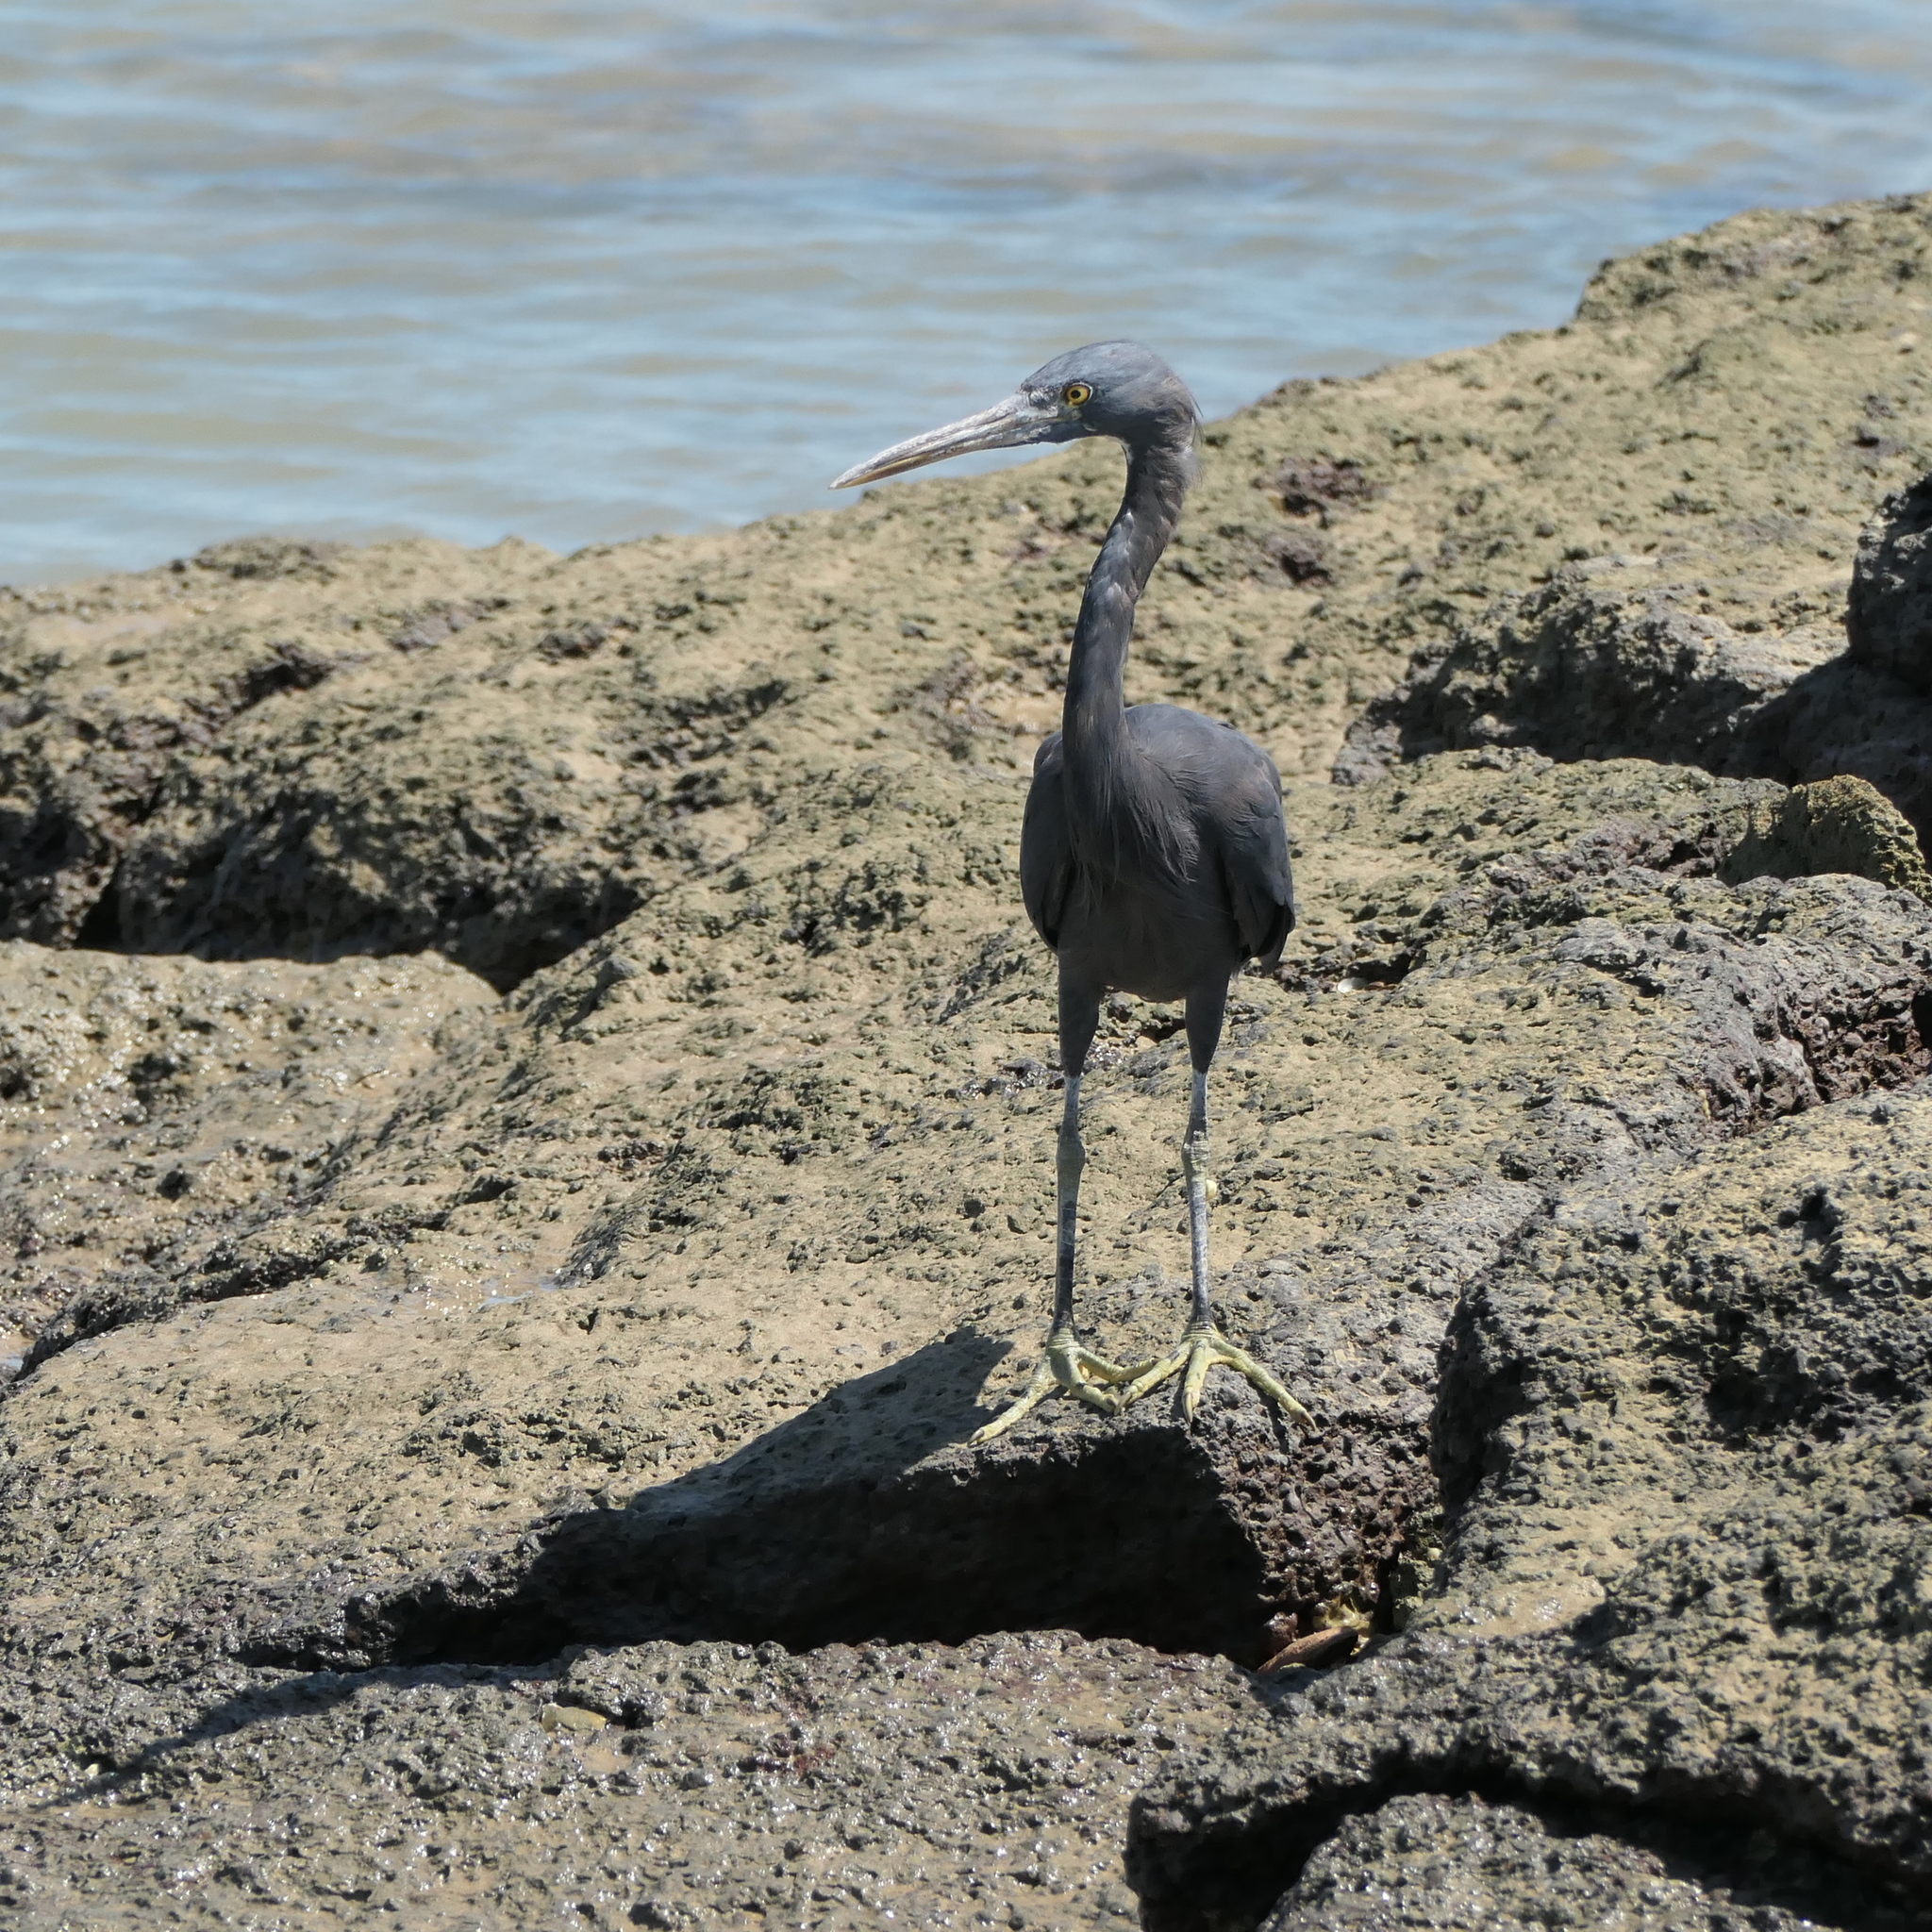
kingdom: Animalia
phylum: Chordata
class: Aves
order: Pelecaniformes
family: Ardeidae
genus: Egretta
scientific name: Egretta sacra
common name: Pacific reef heron
